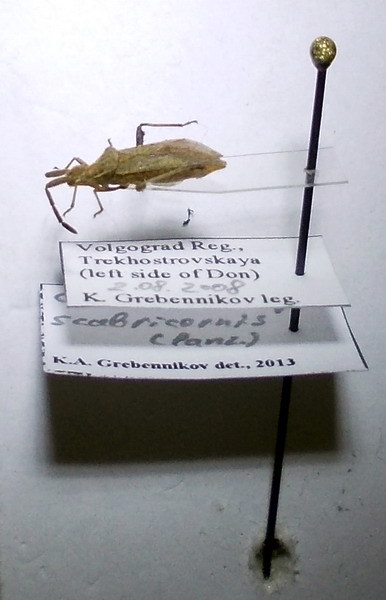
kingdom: Animalia
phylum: Arthropoda
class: Insecta
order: Hemiptera
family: Coreidae
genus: Coriomeris
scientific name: Coriomeris scabricornis
